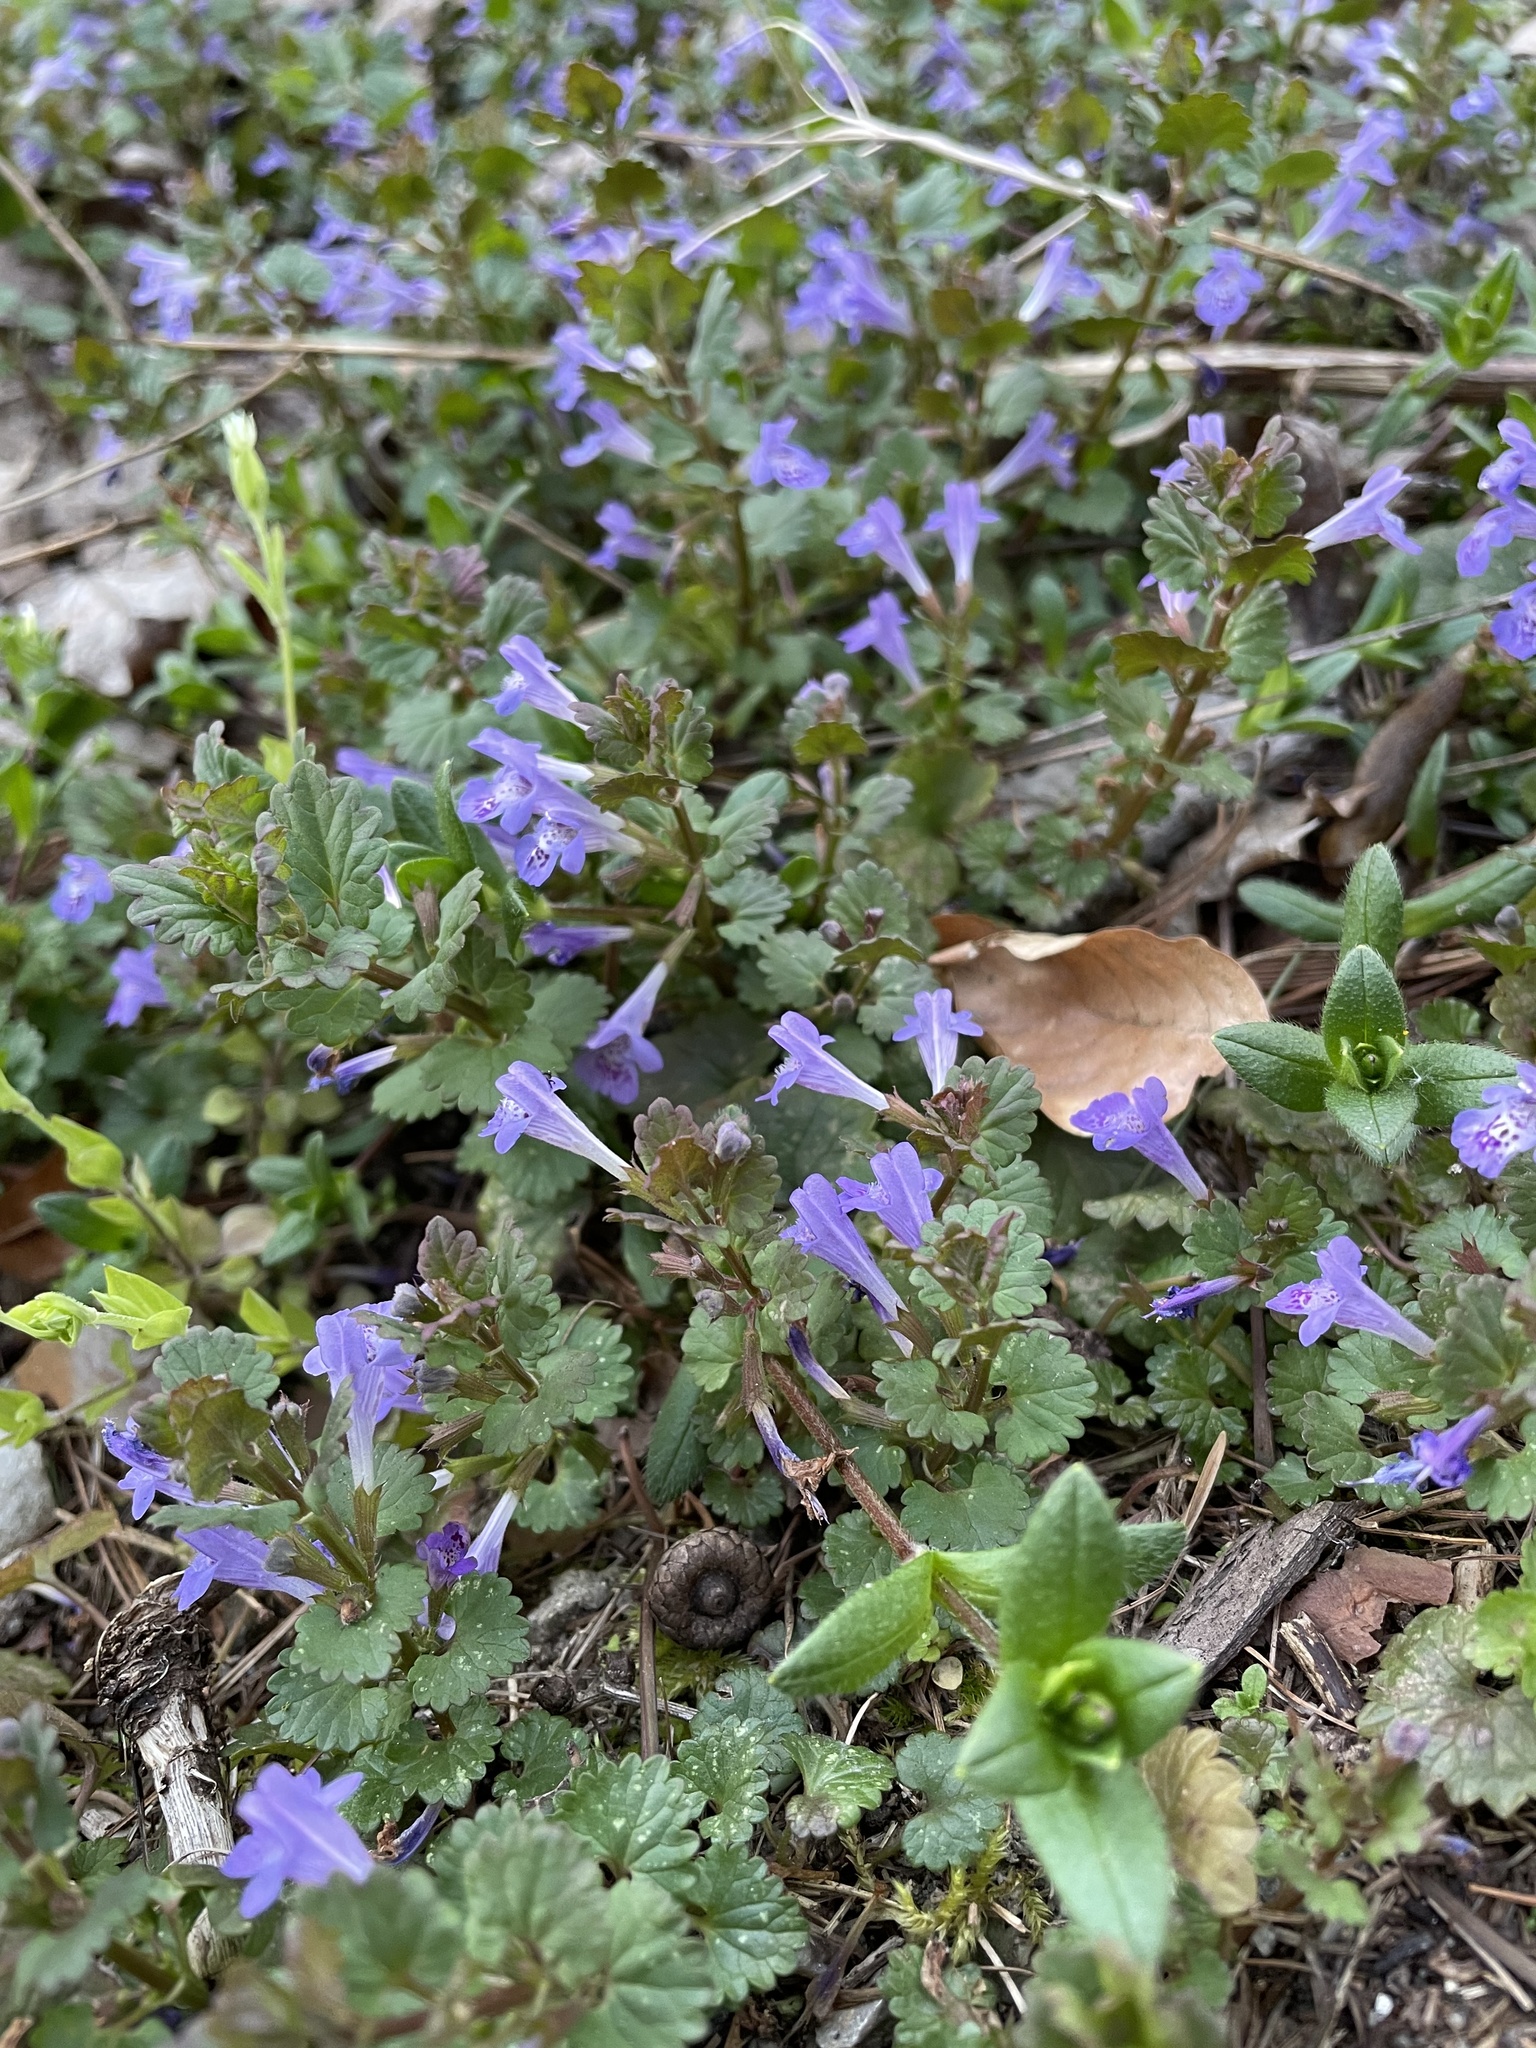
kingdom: Plantae
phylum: Tracheophyta
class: Magnoliopsida
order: Lamiales
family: Lamiaceae
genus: Glechoma
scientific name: Glechoma hederacea
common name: Ground ivy
